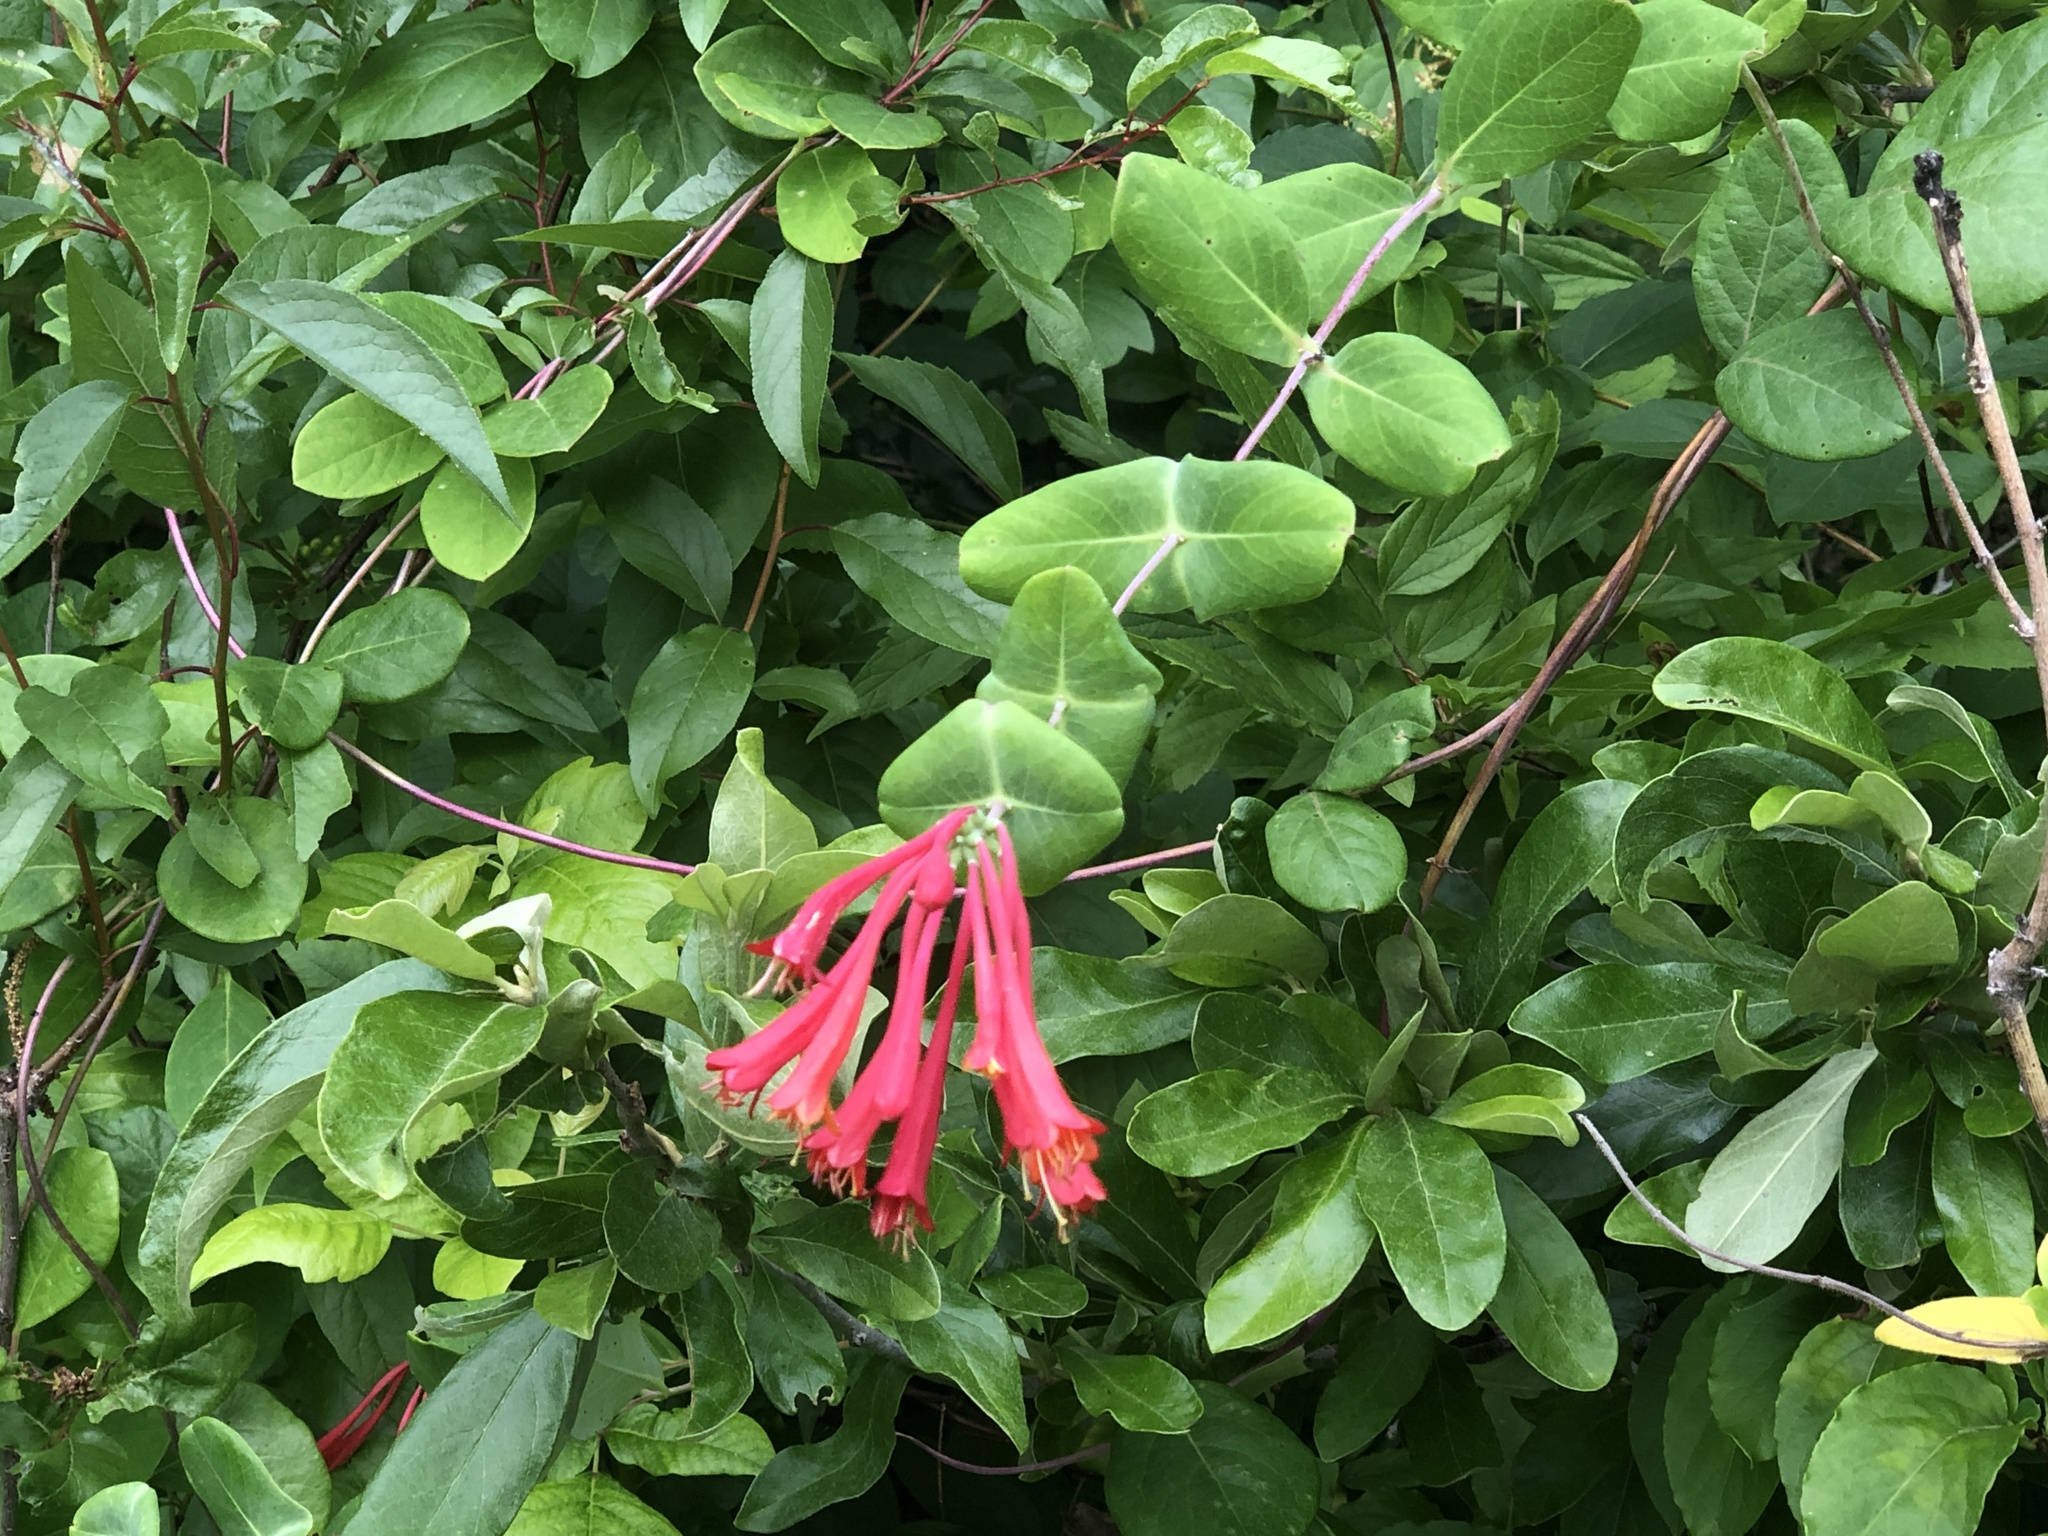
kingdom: Plantae
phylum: Tracheophyta
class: Magnoliopsida
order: Dipsacales
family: Caprifoliaceae
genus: Lonicera
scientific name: Lonicera sempervirens
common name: Coral honeysuckle
